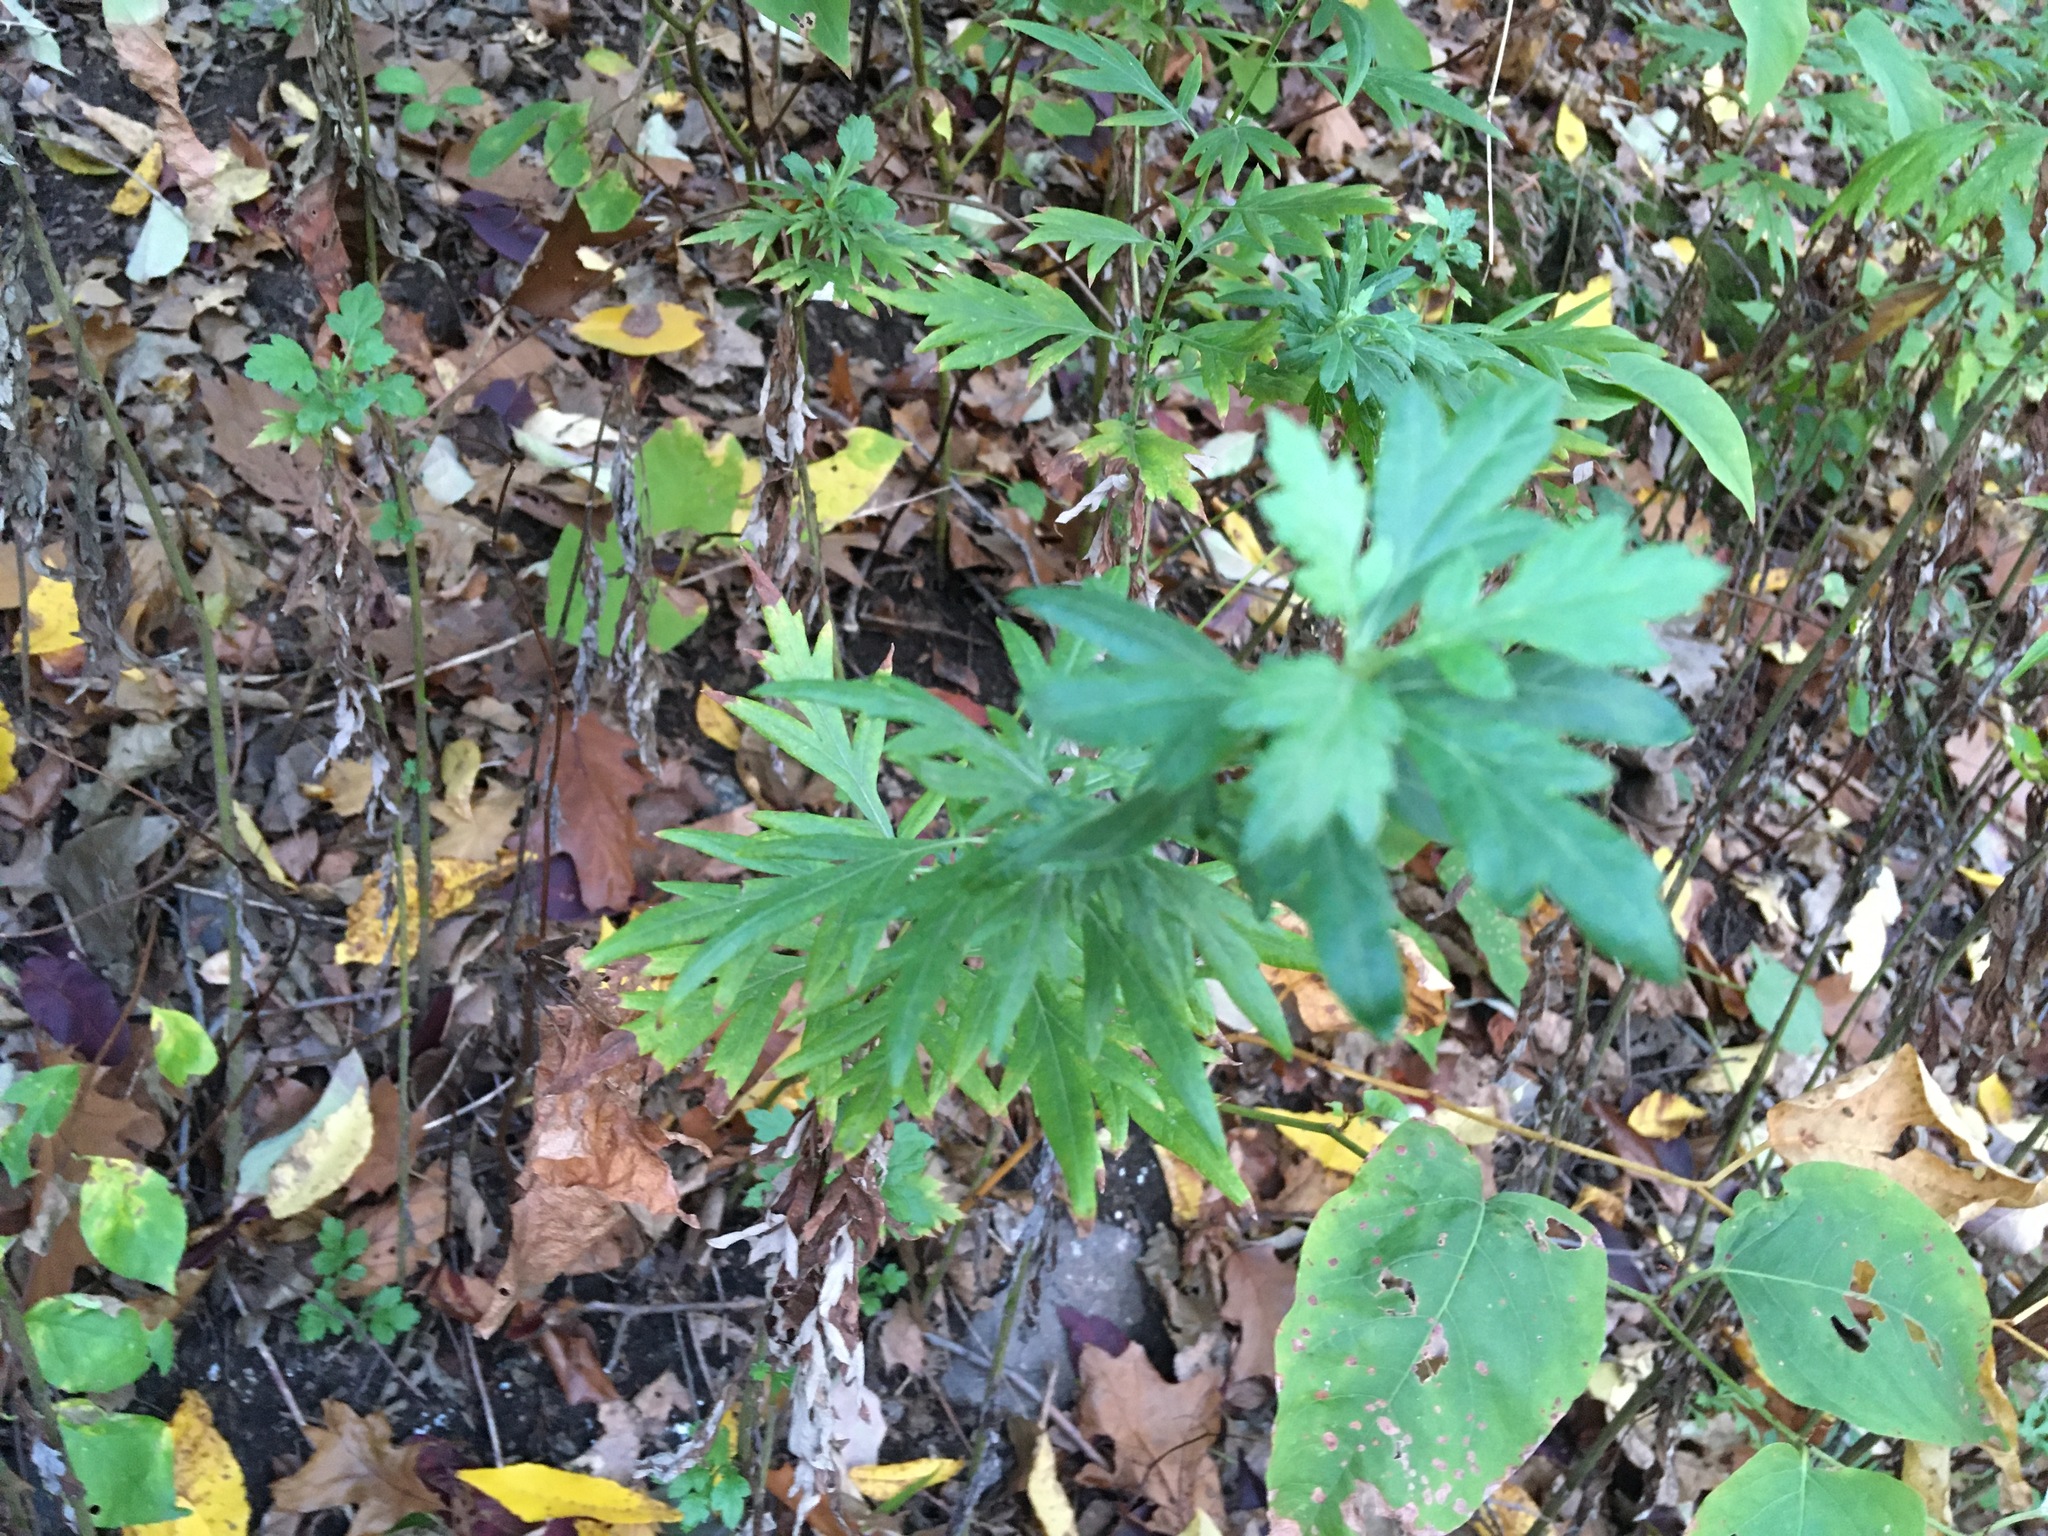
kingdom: Plantae
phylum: Tracheophyta
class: Magnoliopsida
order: Asterales
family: Asteraceae
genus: Artemisia
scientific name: Artemisia vulgaris
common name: Mugwort
